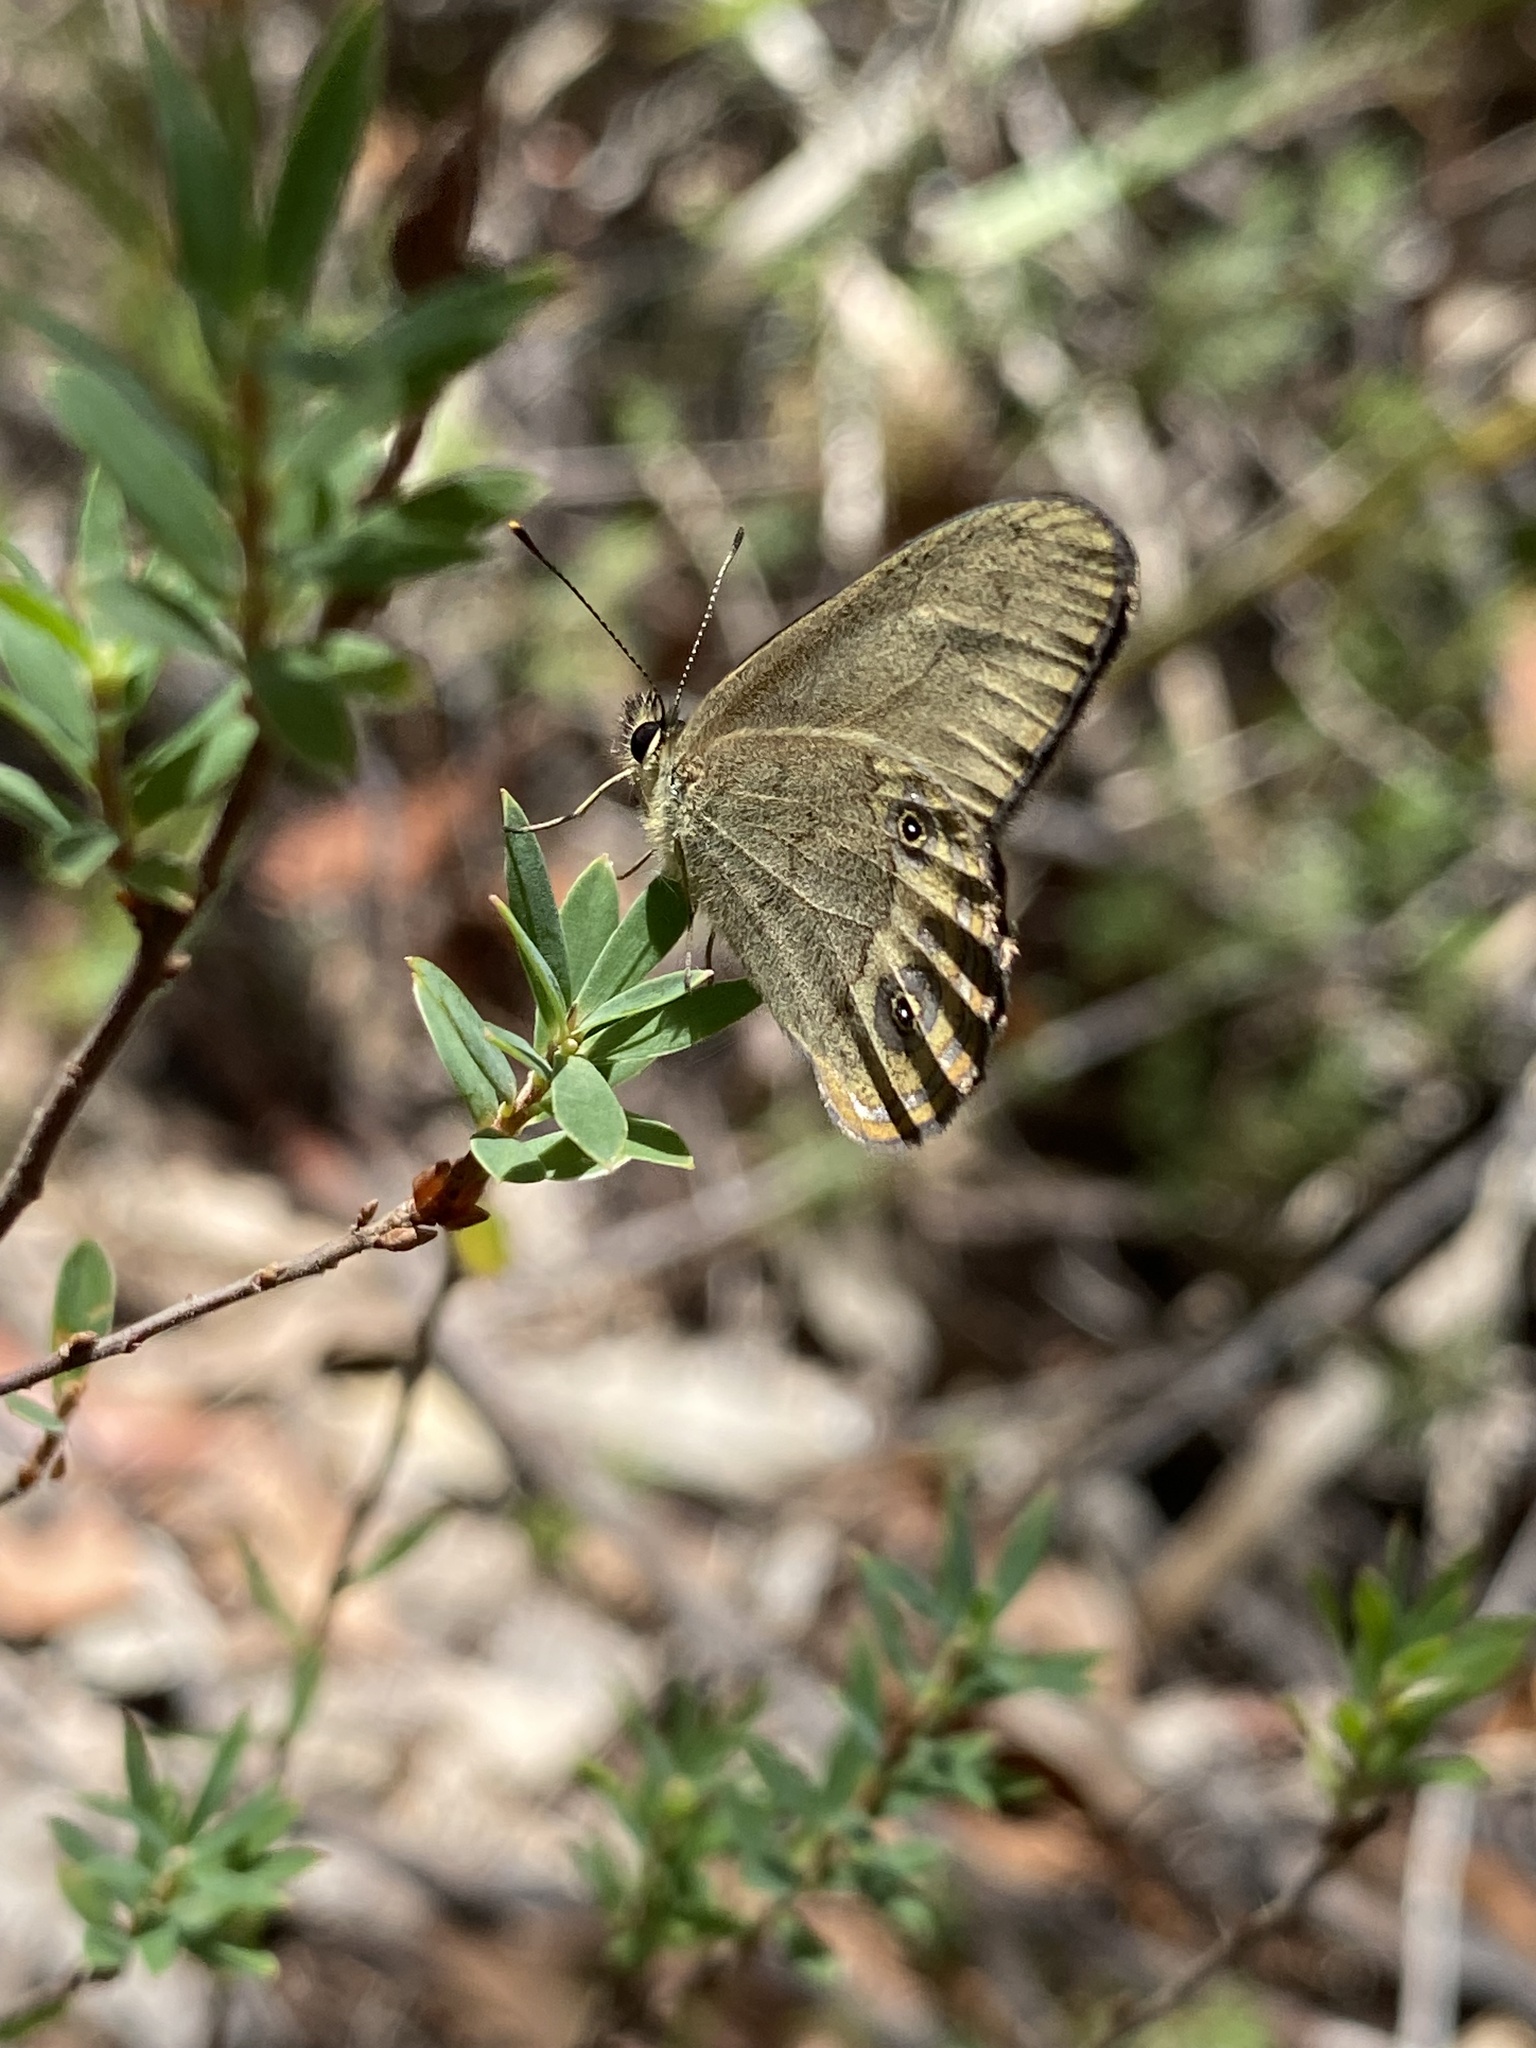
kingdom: Animalia
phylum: Arthropoda
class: Insecta
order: Lepidoptera
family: Nymphalidae
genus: Hypocysta
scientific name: Hypocysta pseudirius
